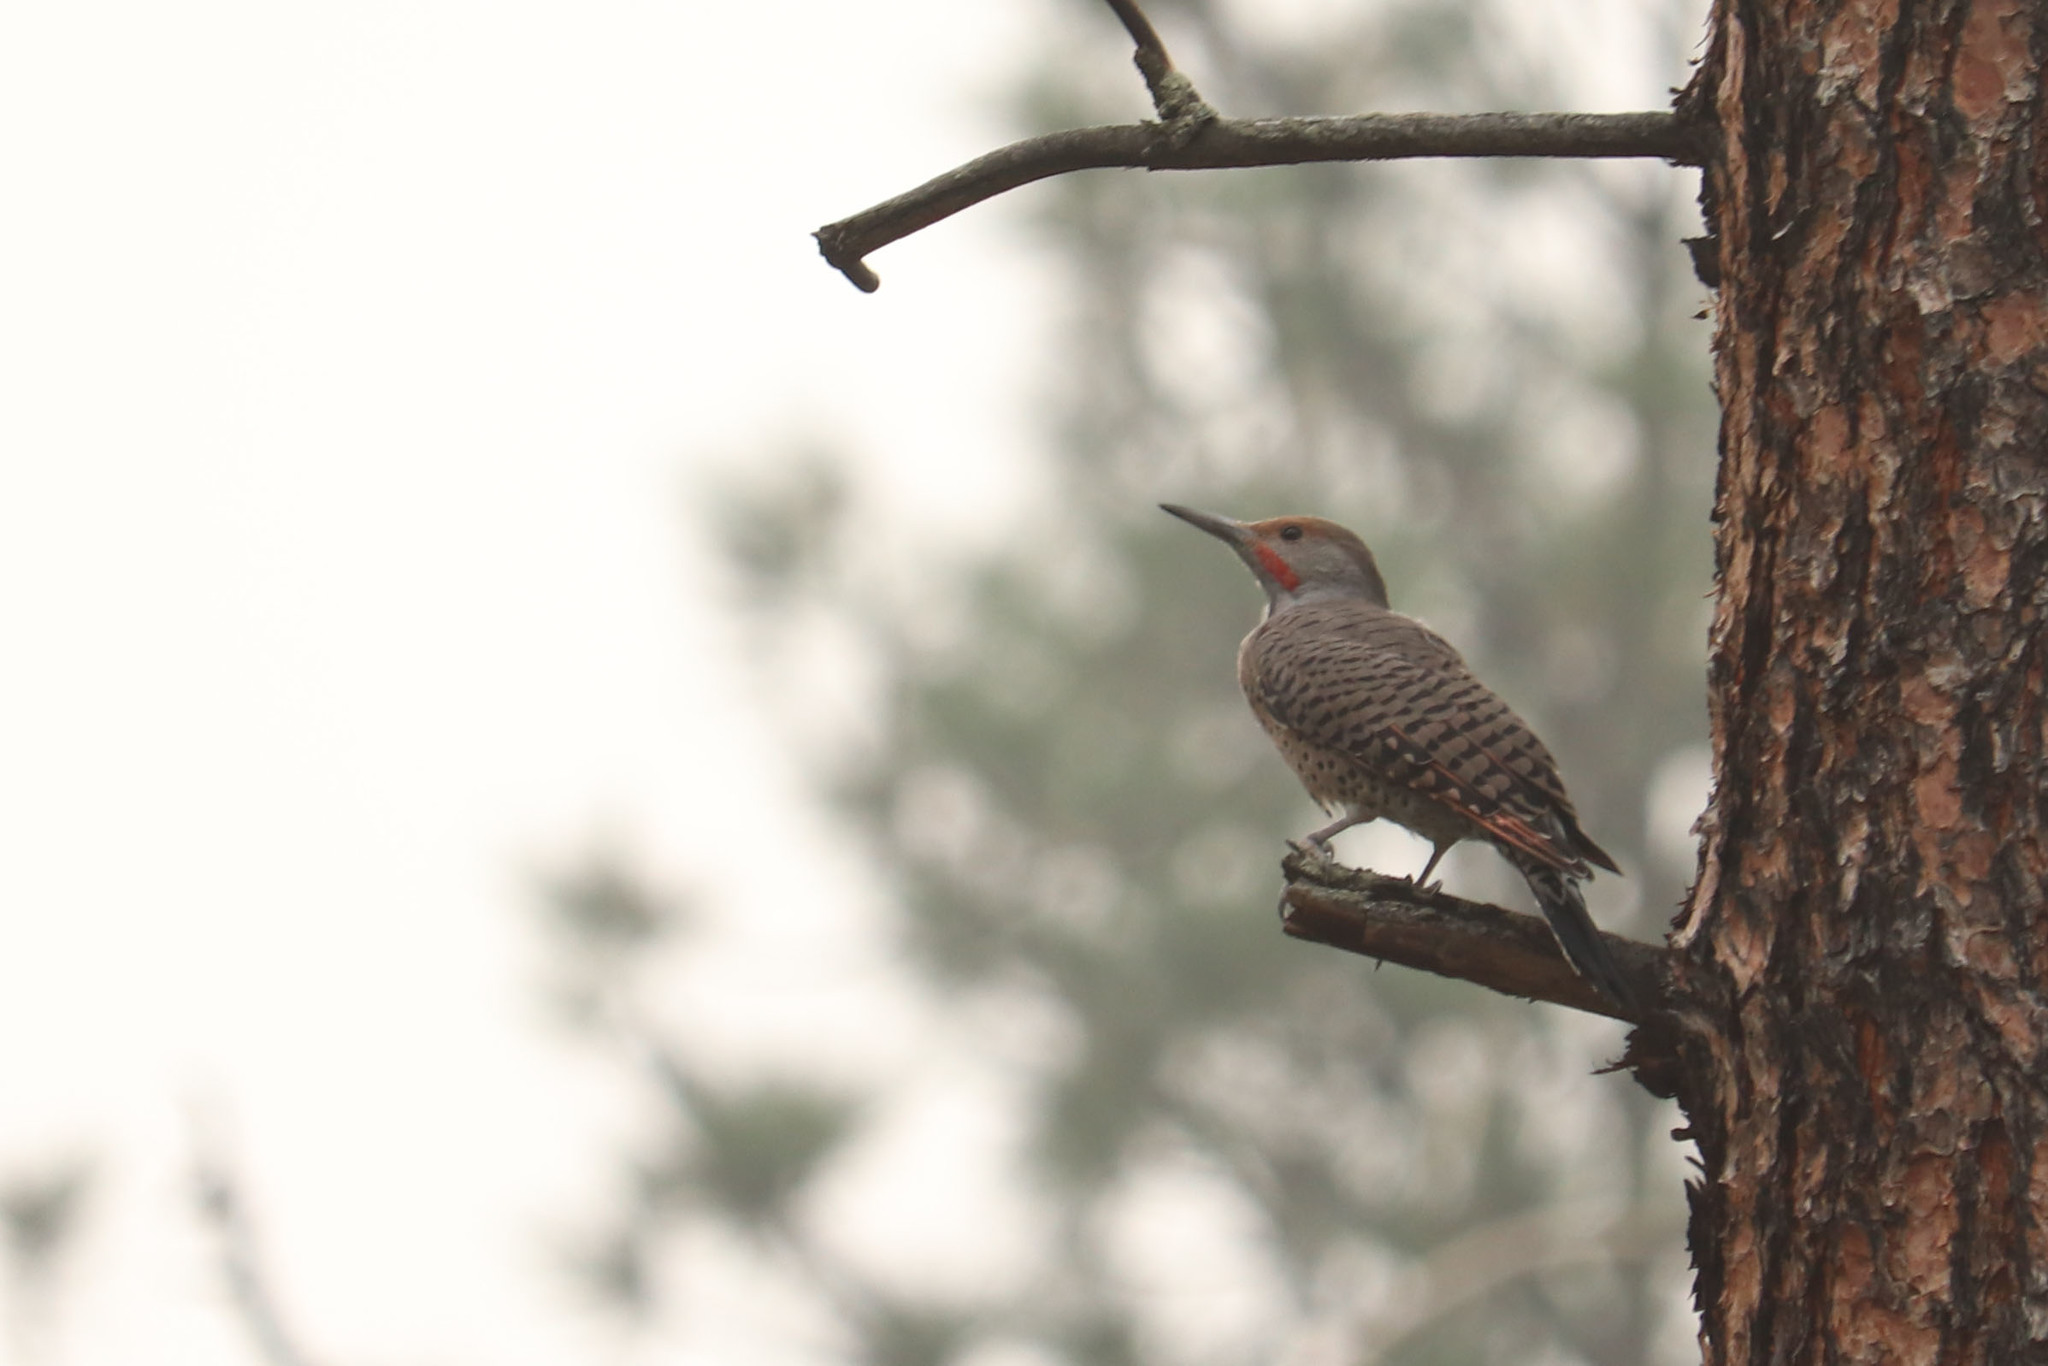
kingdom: Animalia
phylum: Chordata
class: Aves
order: Piciformes
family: Picidae
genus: Colaptes
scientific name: Colaptes auratus
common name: Northern flicker
